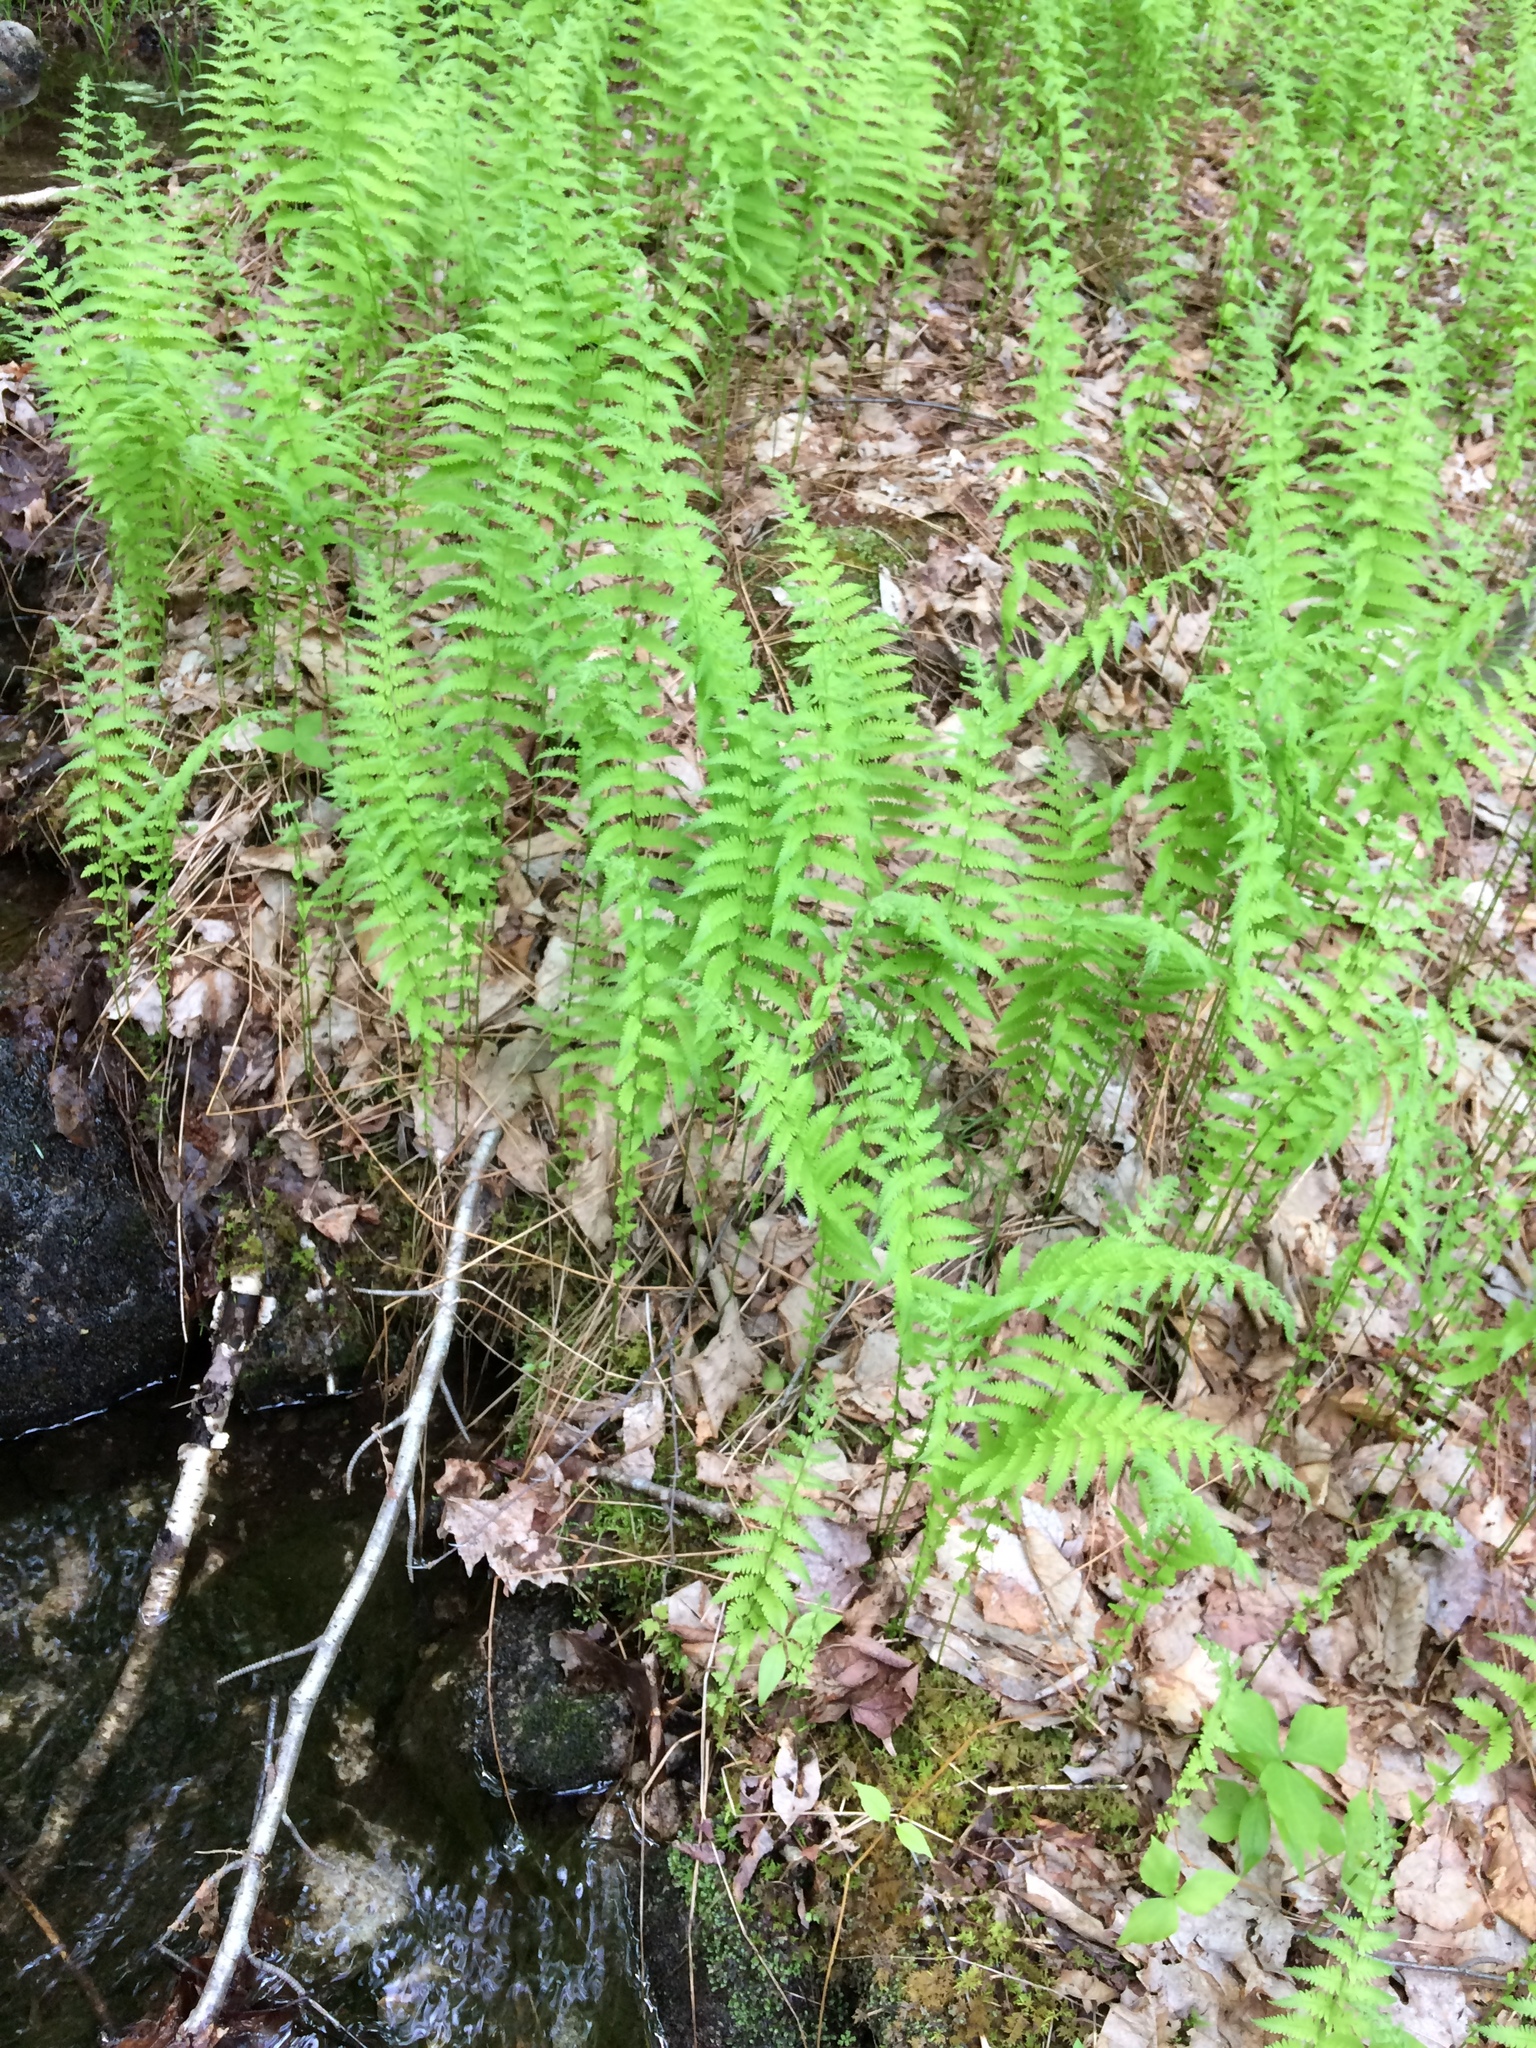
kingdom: Plantae
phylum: Tracheophyta
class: Polypodiopsida
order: Polypodiales
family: Thelypteridaceae
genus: Amauropelta
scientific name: Amauropelta noveboracensis
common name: New york fern
